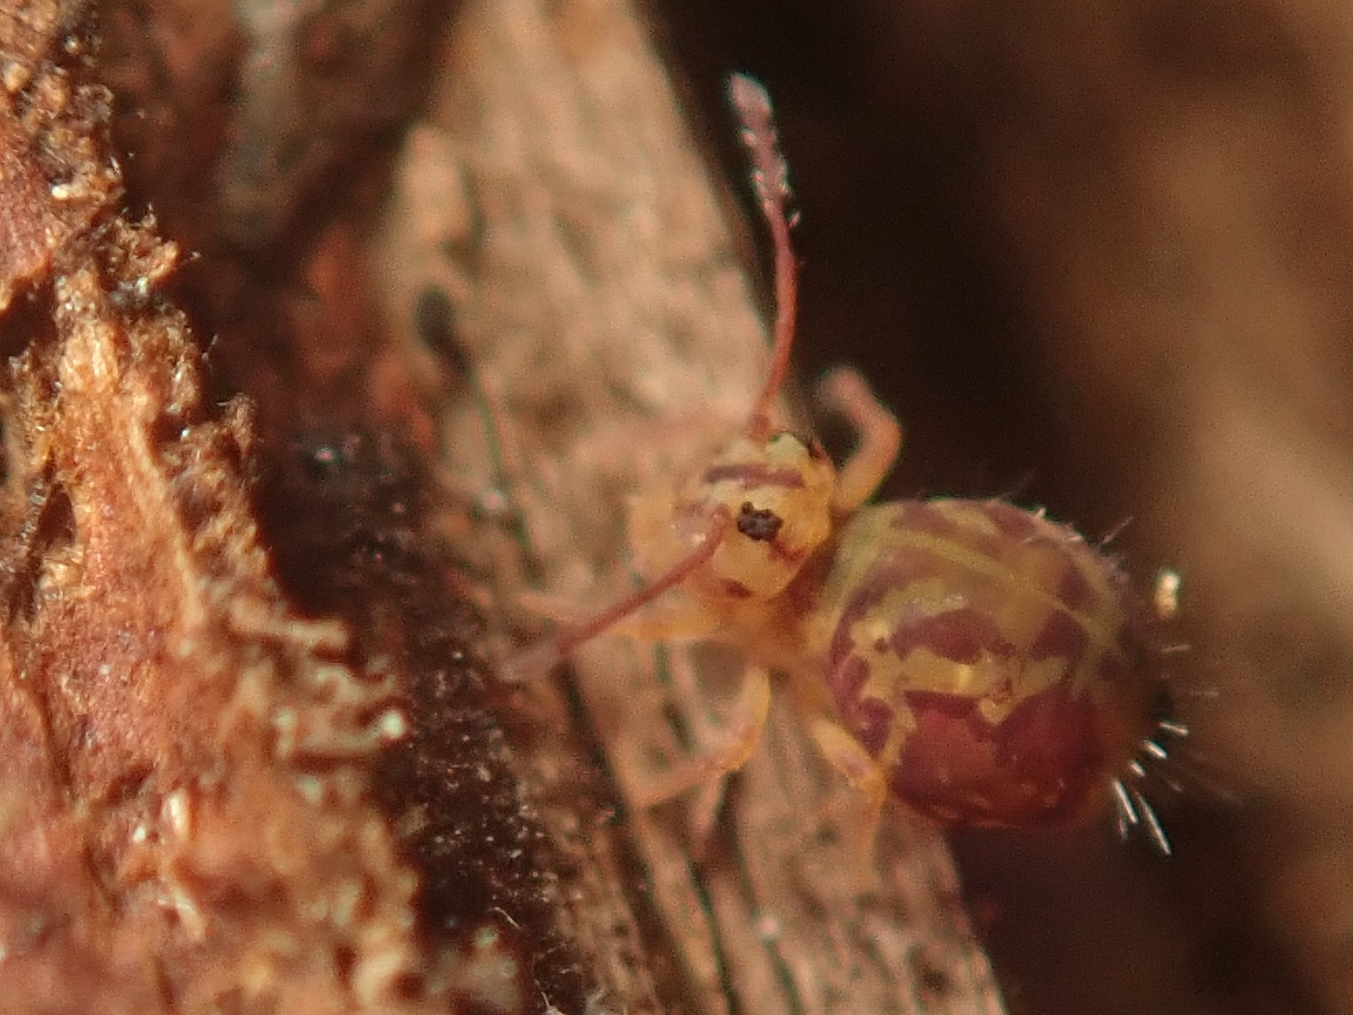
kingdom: Animalia
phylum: Arthropoda
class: Collembola
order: Symphypleona
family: Dicyrtomidae
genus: Dicyrtomina
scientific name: Dicyrtomina ornata
